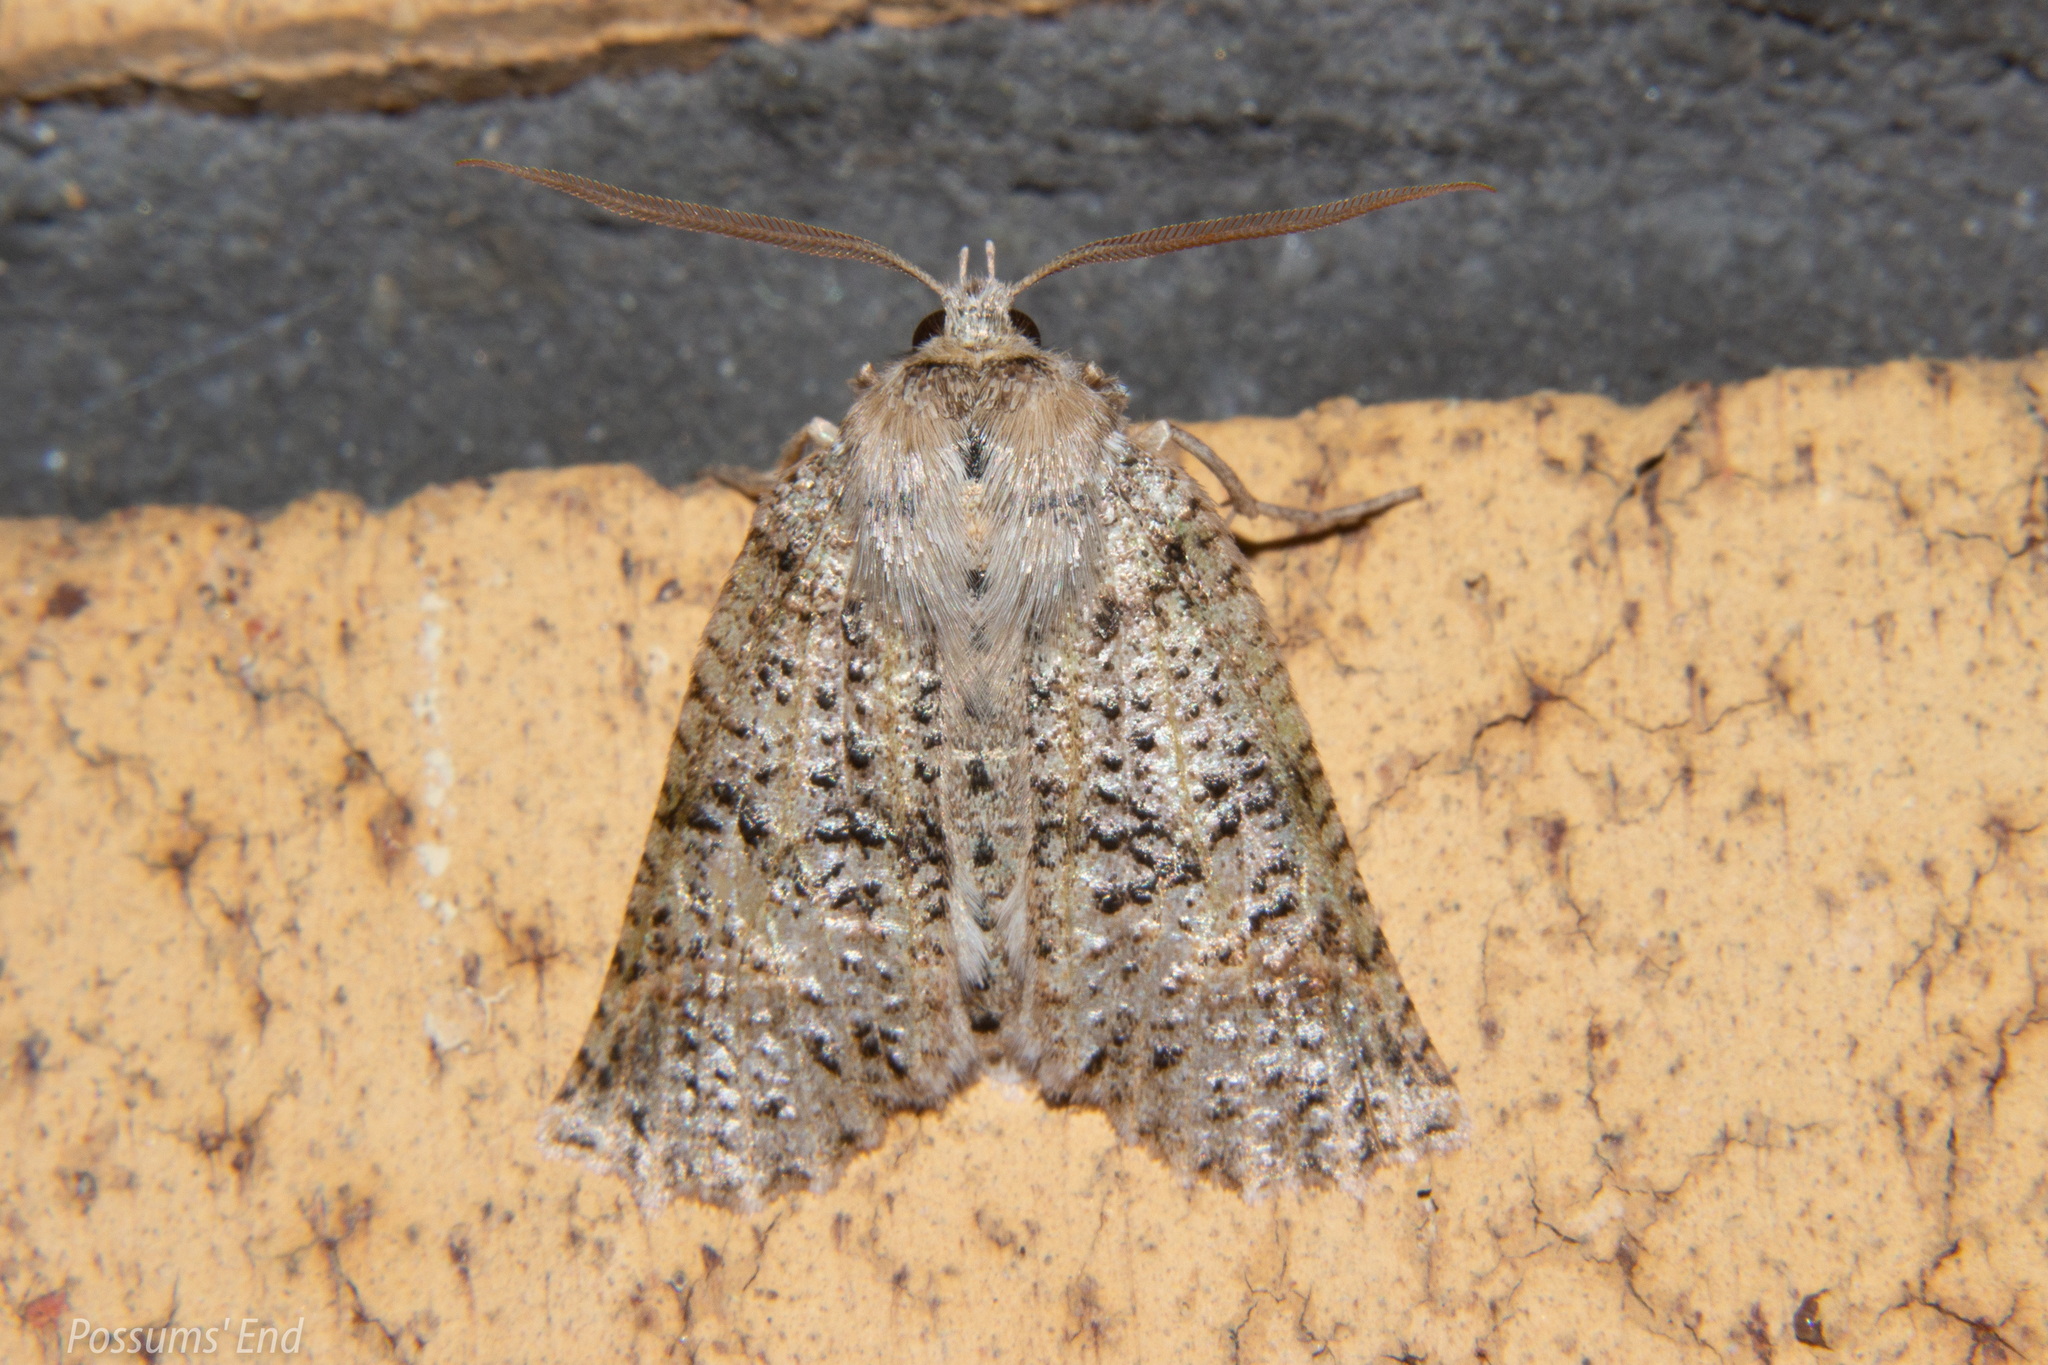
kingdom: Animalia
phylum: Arthropoda
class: Insecta
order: Lepidoptera
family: Geometridae
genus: Declana
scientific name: Declana floccosa
